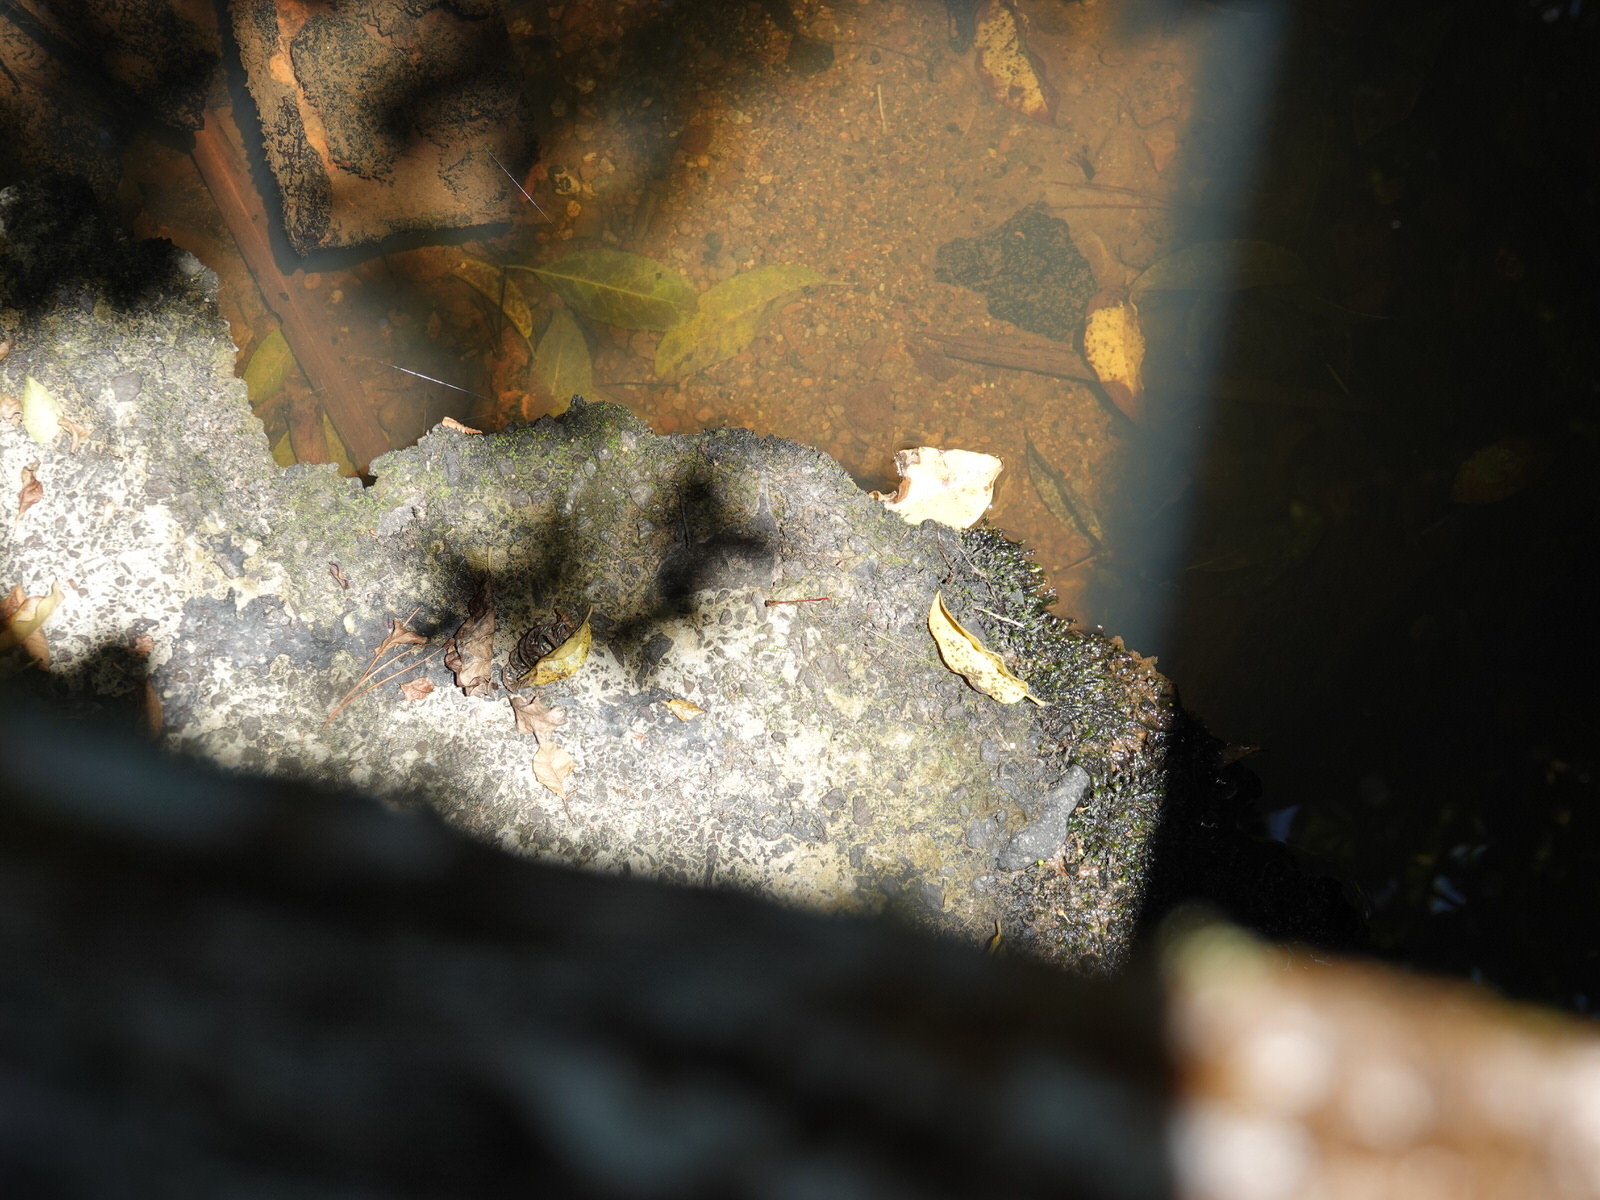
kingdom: Animalia
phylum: Arthropoda
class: Insecta
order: Odonata
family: Coenagrionidae
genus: Xanthocnemis
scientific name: Xanthocnemis zealandica
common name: Common redcoat damselfly
